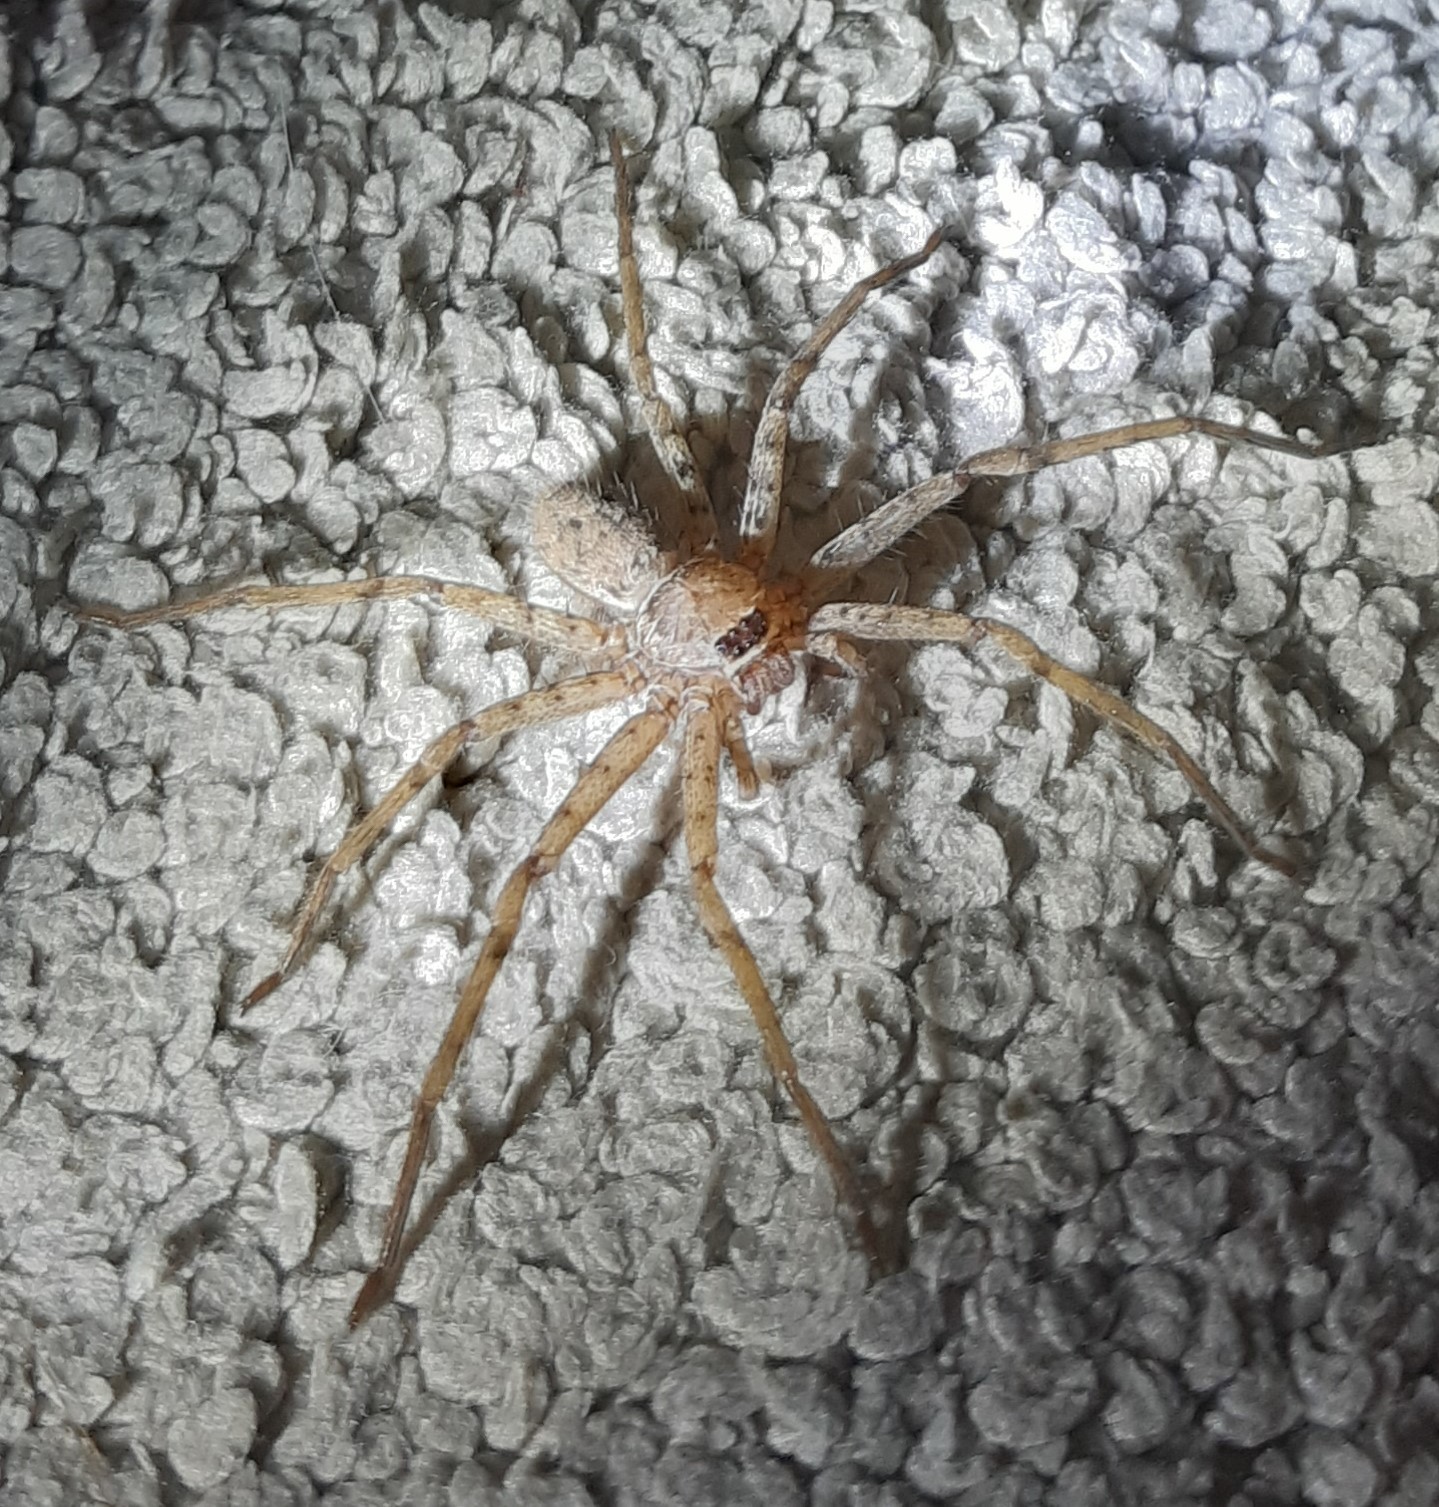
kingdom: Animalia
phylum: Arthropoda
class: Arachnida
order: Araneae
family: Sparassidae
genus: Heteropoda
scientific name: Heteropoda venatoria
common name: Huntsman spider
